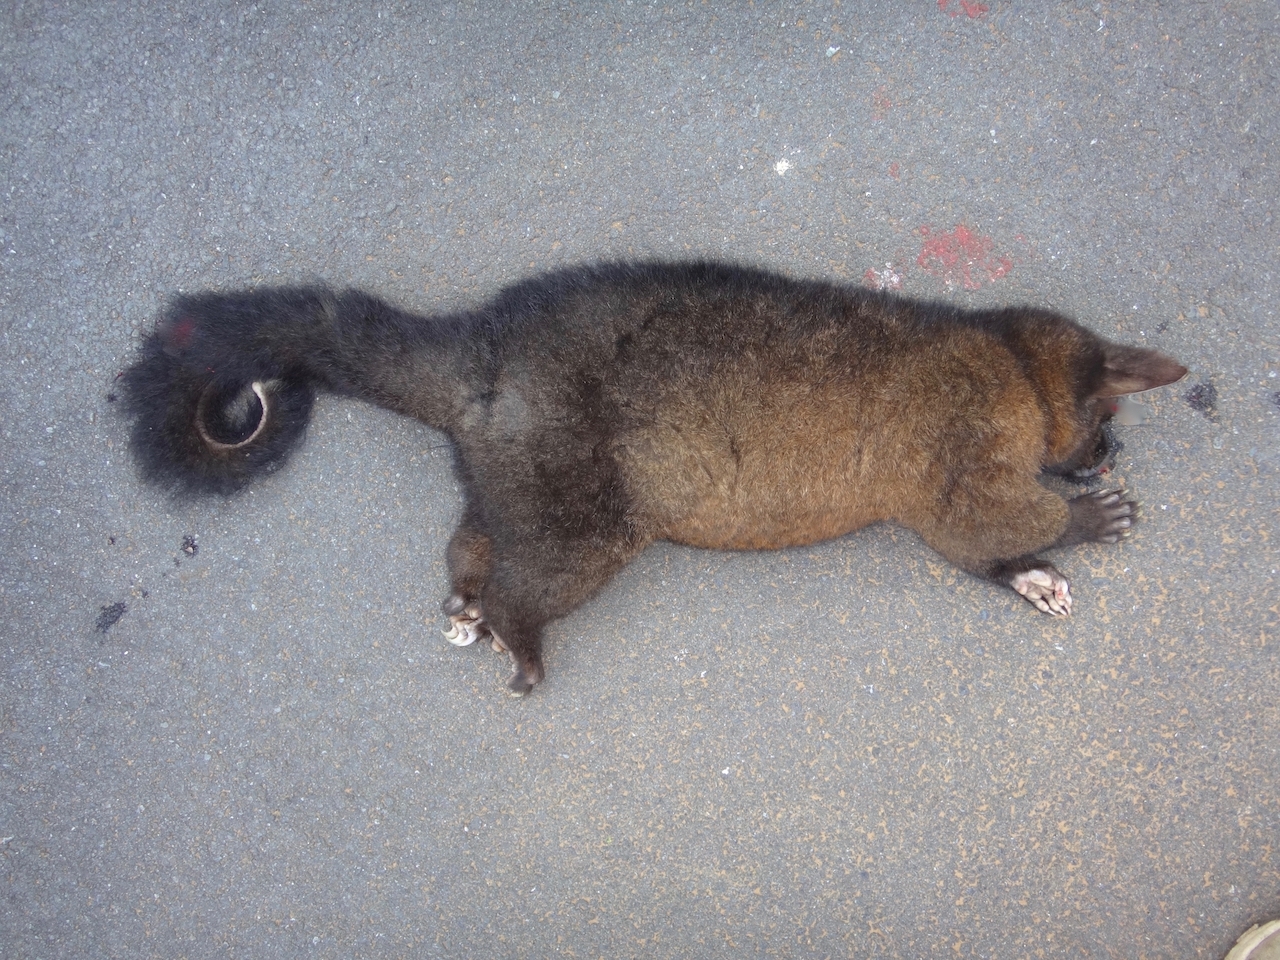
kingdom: Animalia
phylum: Chordata
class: Mammalia
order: Diprotodontia
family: Phalangeridae
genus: Trichosurus
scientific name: Trichosurus vulpecula
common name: Common brushtail
